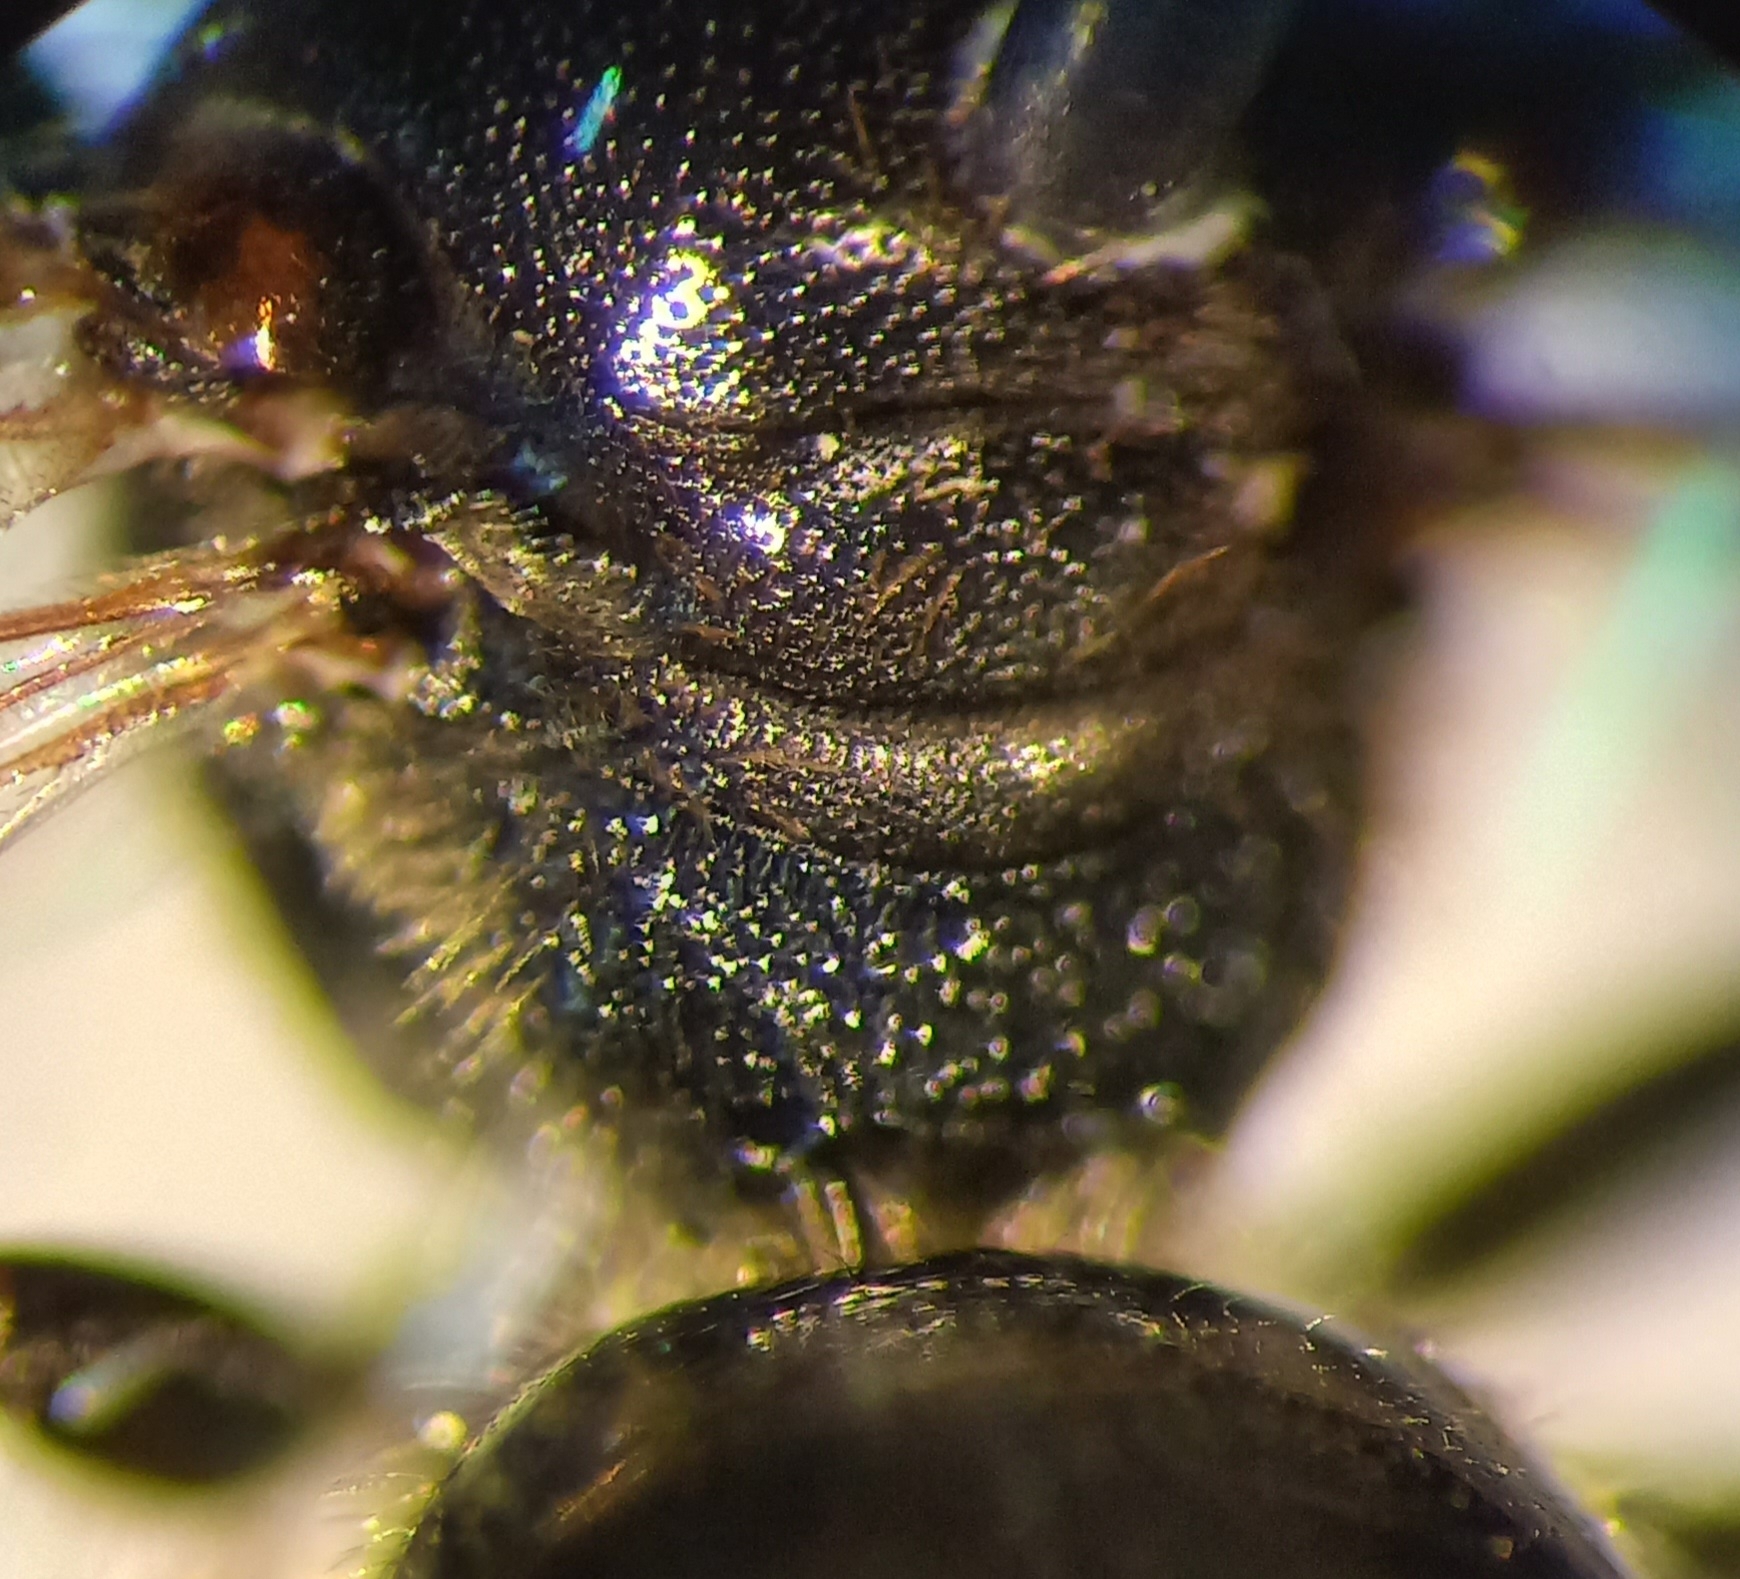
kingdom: Animalia
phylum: Arthropoda
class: Insecta
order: Hymenoptera
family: Halictidae
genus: Lasioglossum
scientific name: Lasioglossum interruptum
